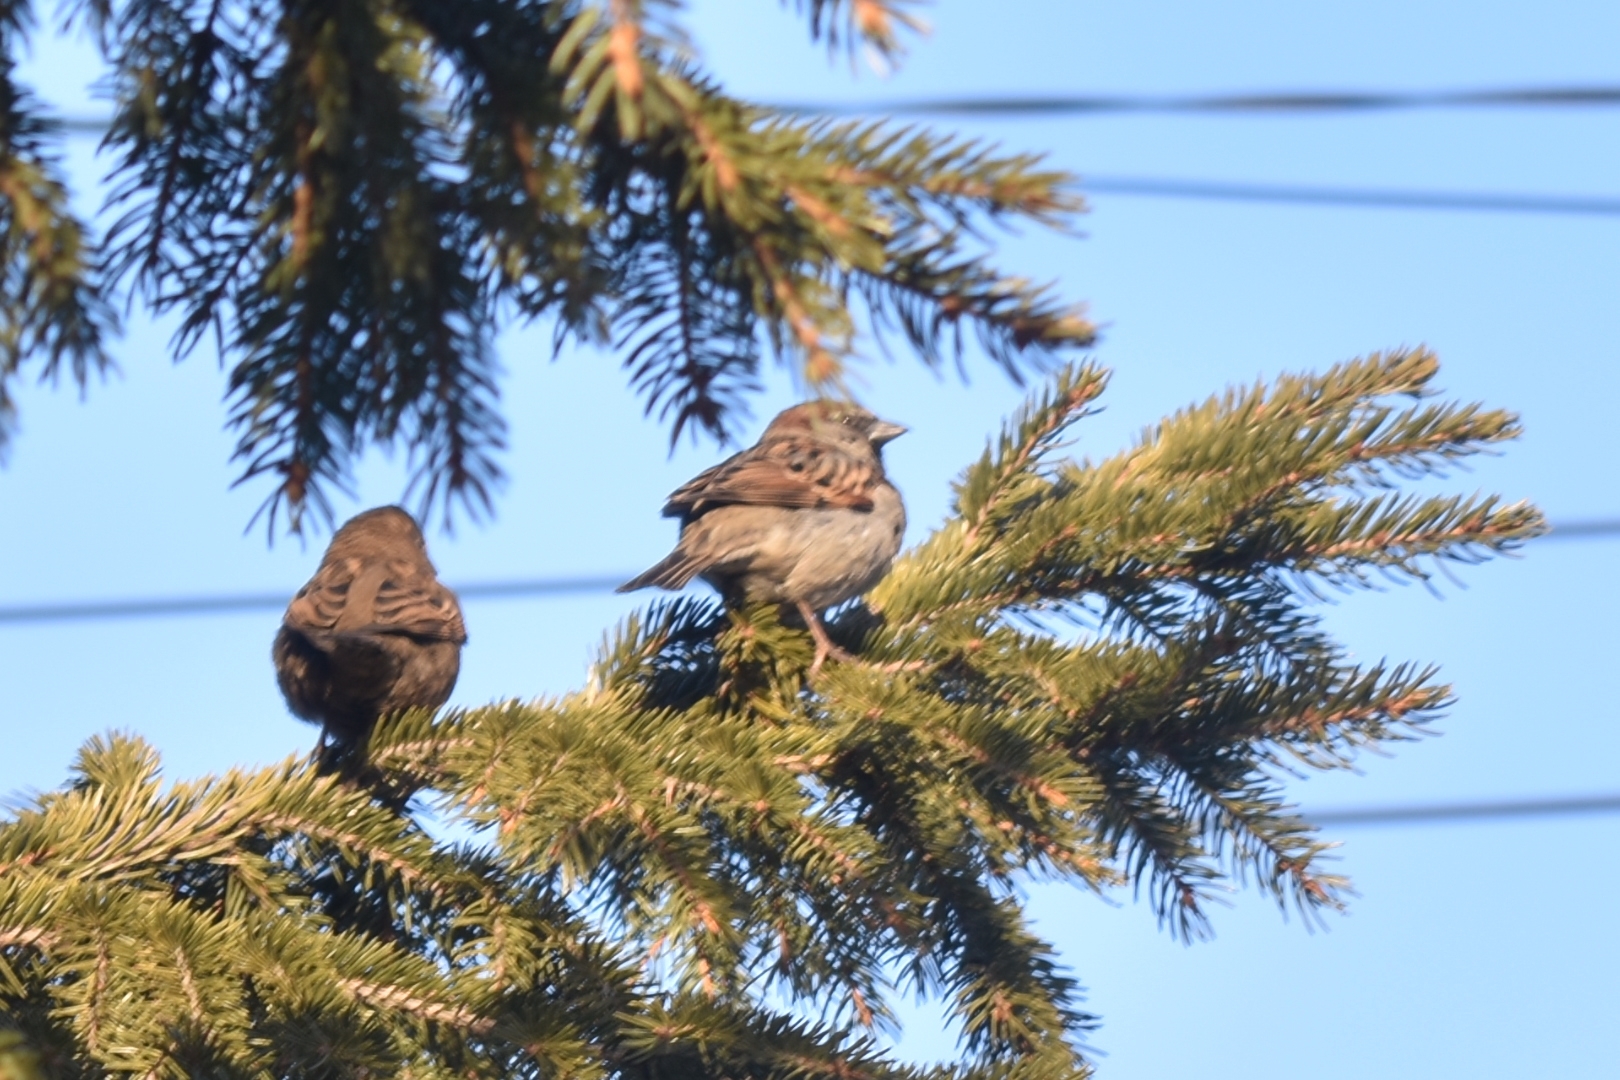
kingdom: Animalia
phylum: Chordata
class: Aves
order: Passeriformes
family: Passeridae
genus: Passer
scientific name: Passer domesticus
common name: House sparrow
